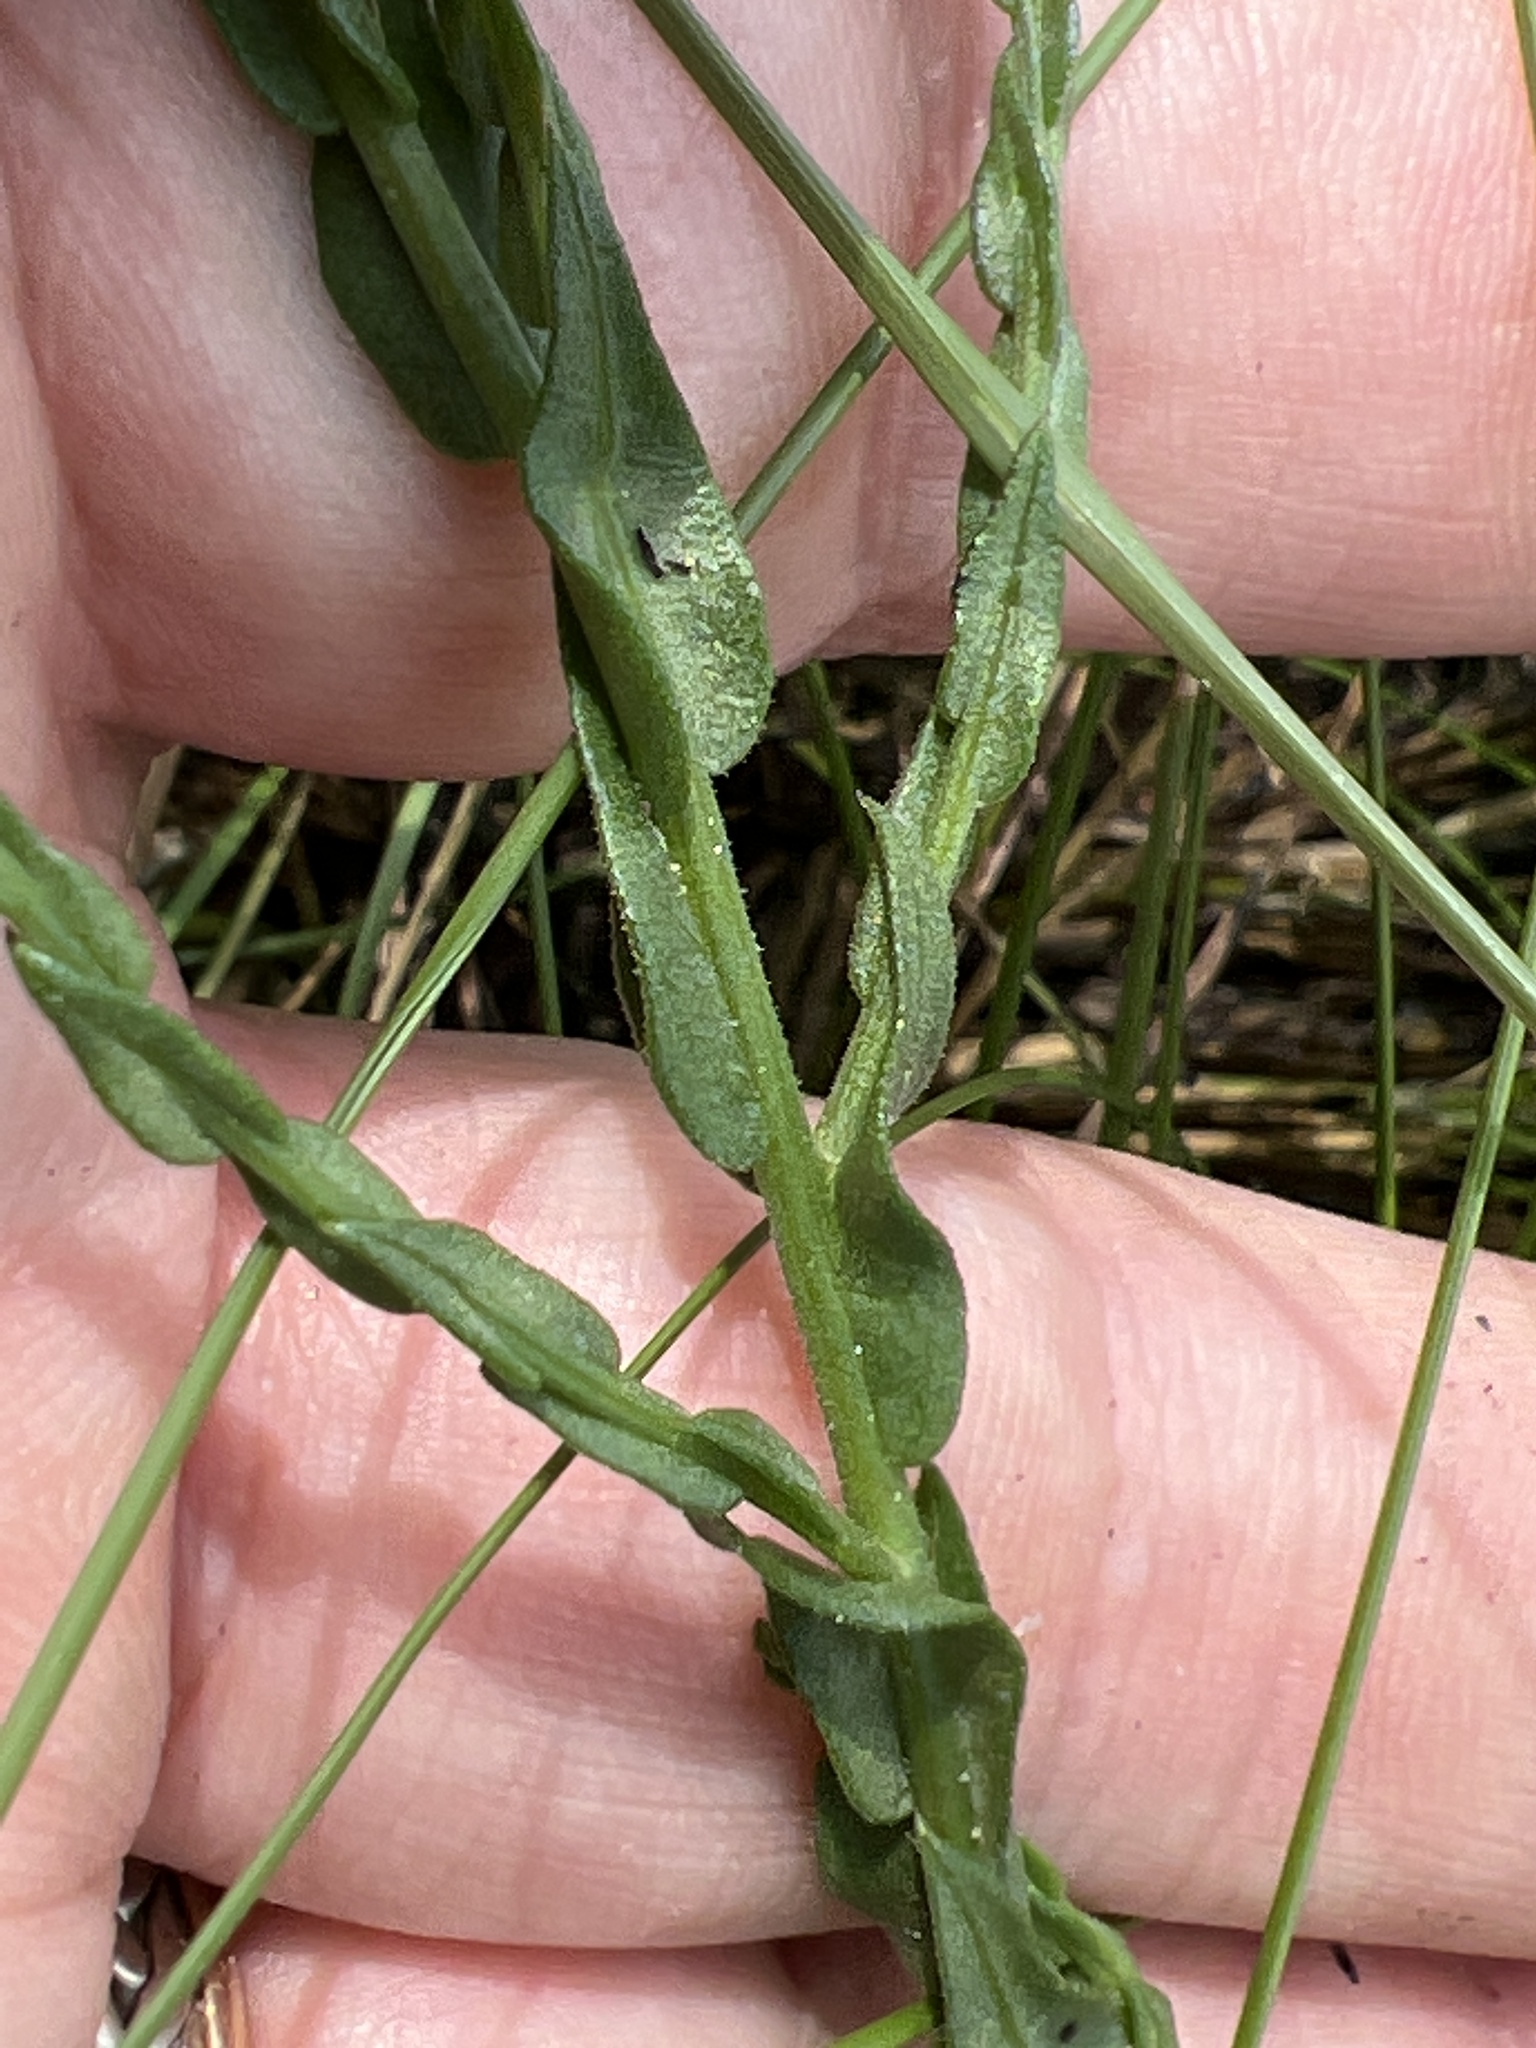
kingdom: Plantae
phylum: Tracheophyta
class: Magnoliopsida
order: Asterales
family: Asteraceae
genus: Symphyotrichum
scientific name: Symphyotrichum adnatum
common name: Scale-leaf aster
